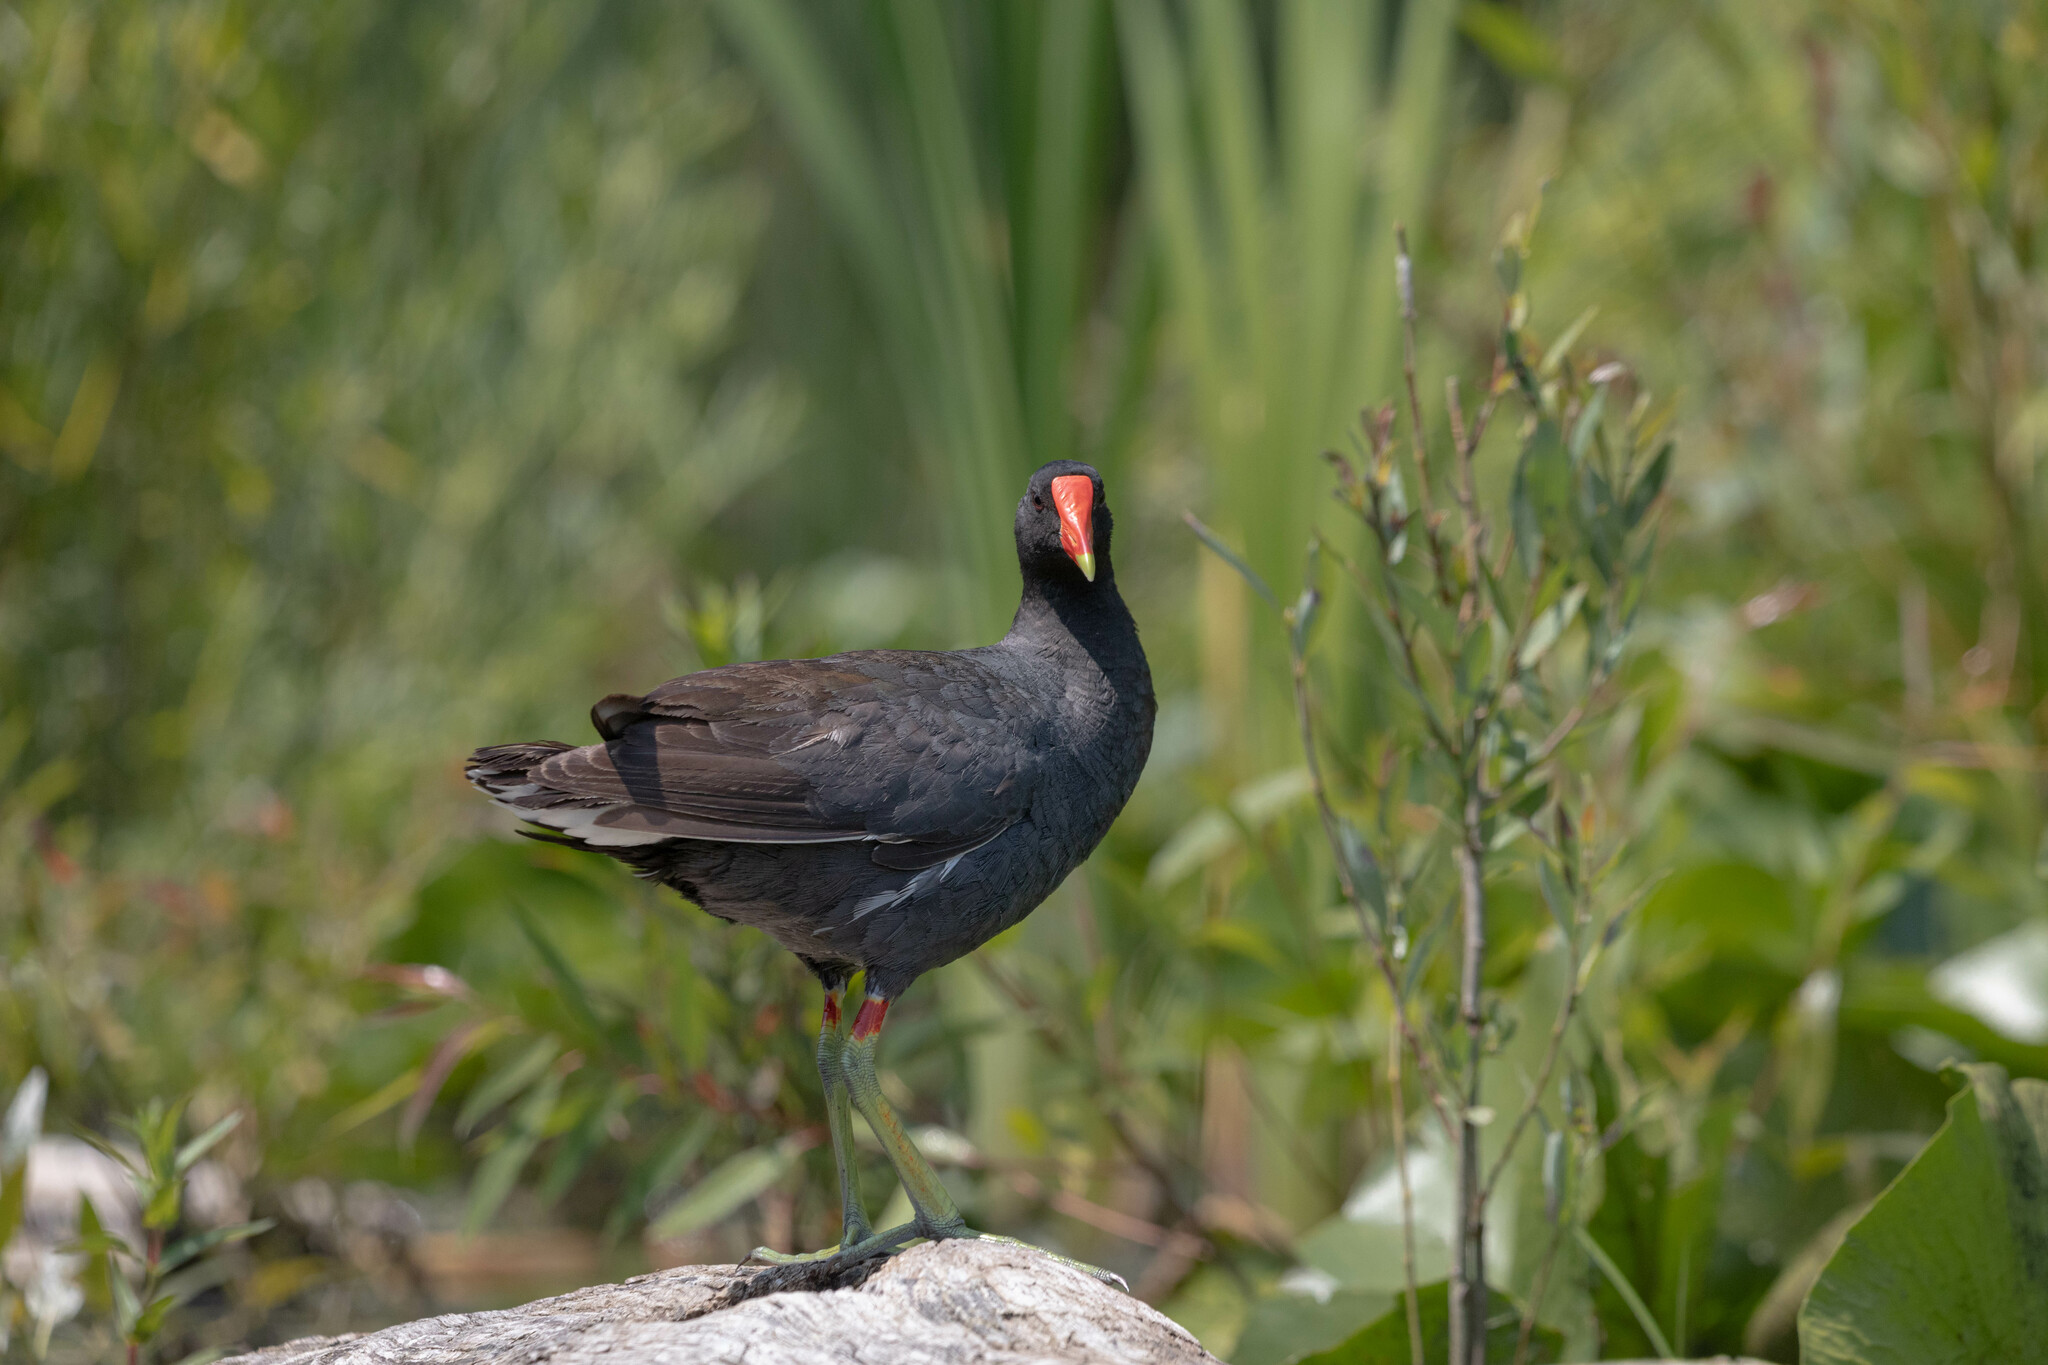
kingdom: Animalia
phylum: Chordata
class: Aves
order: Gruiformes
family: Rallidae
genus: Gallinula
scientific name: Gallinula chloropus
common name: Common moorhen
